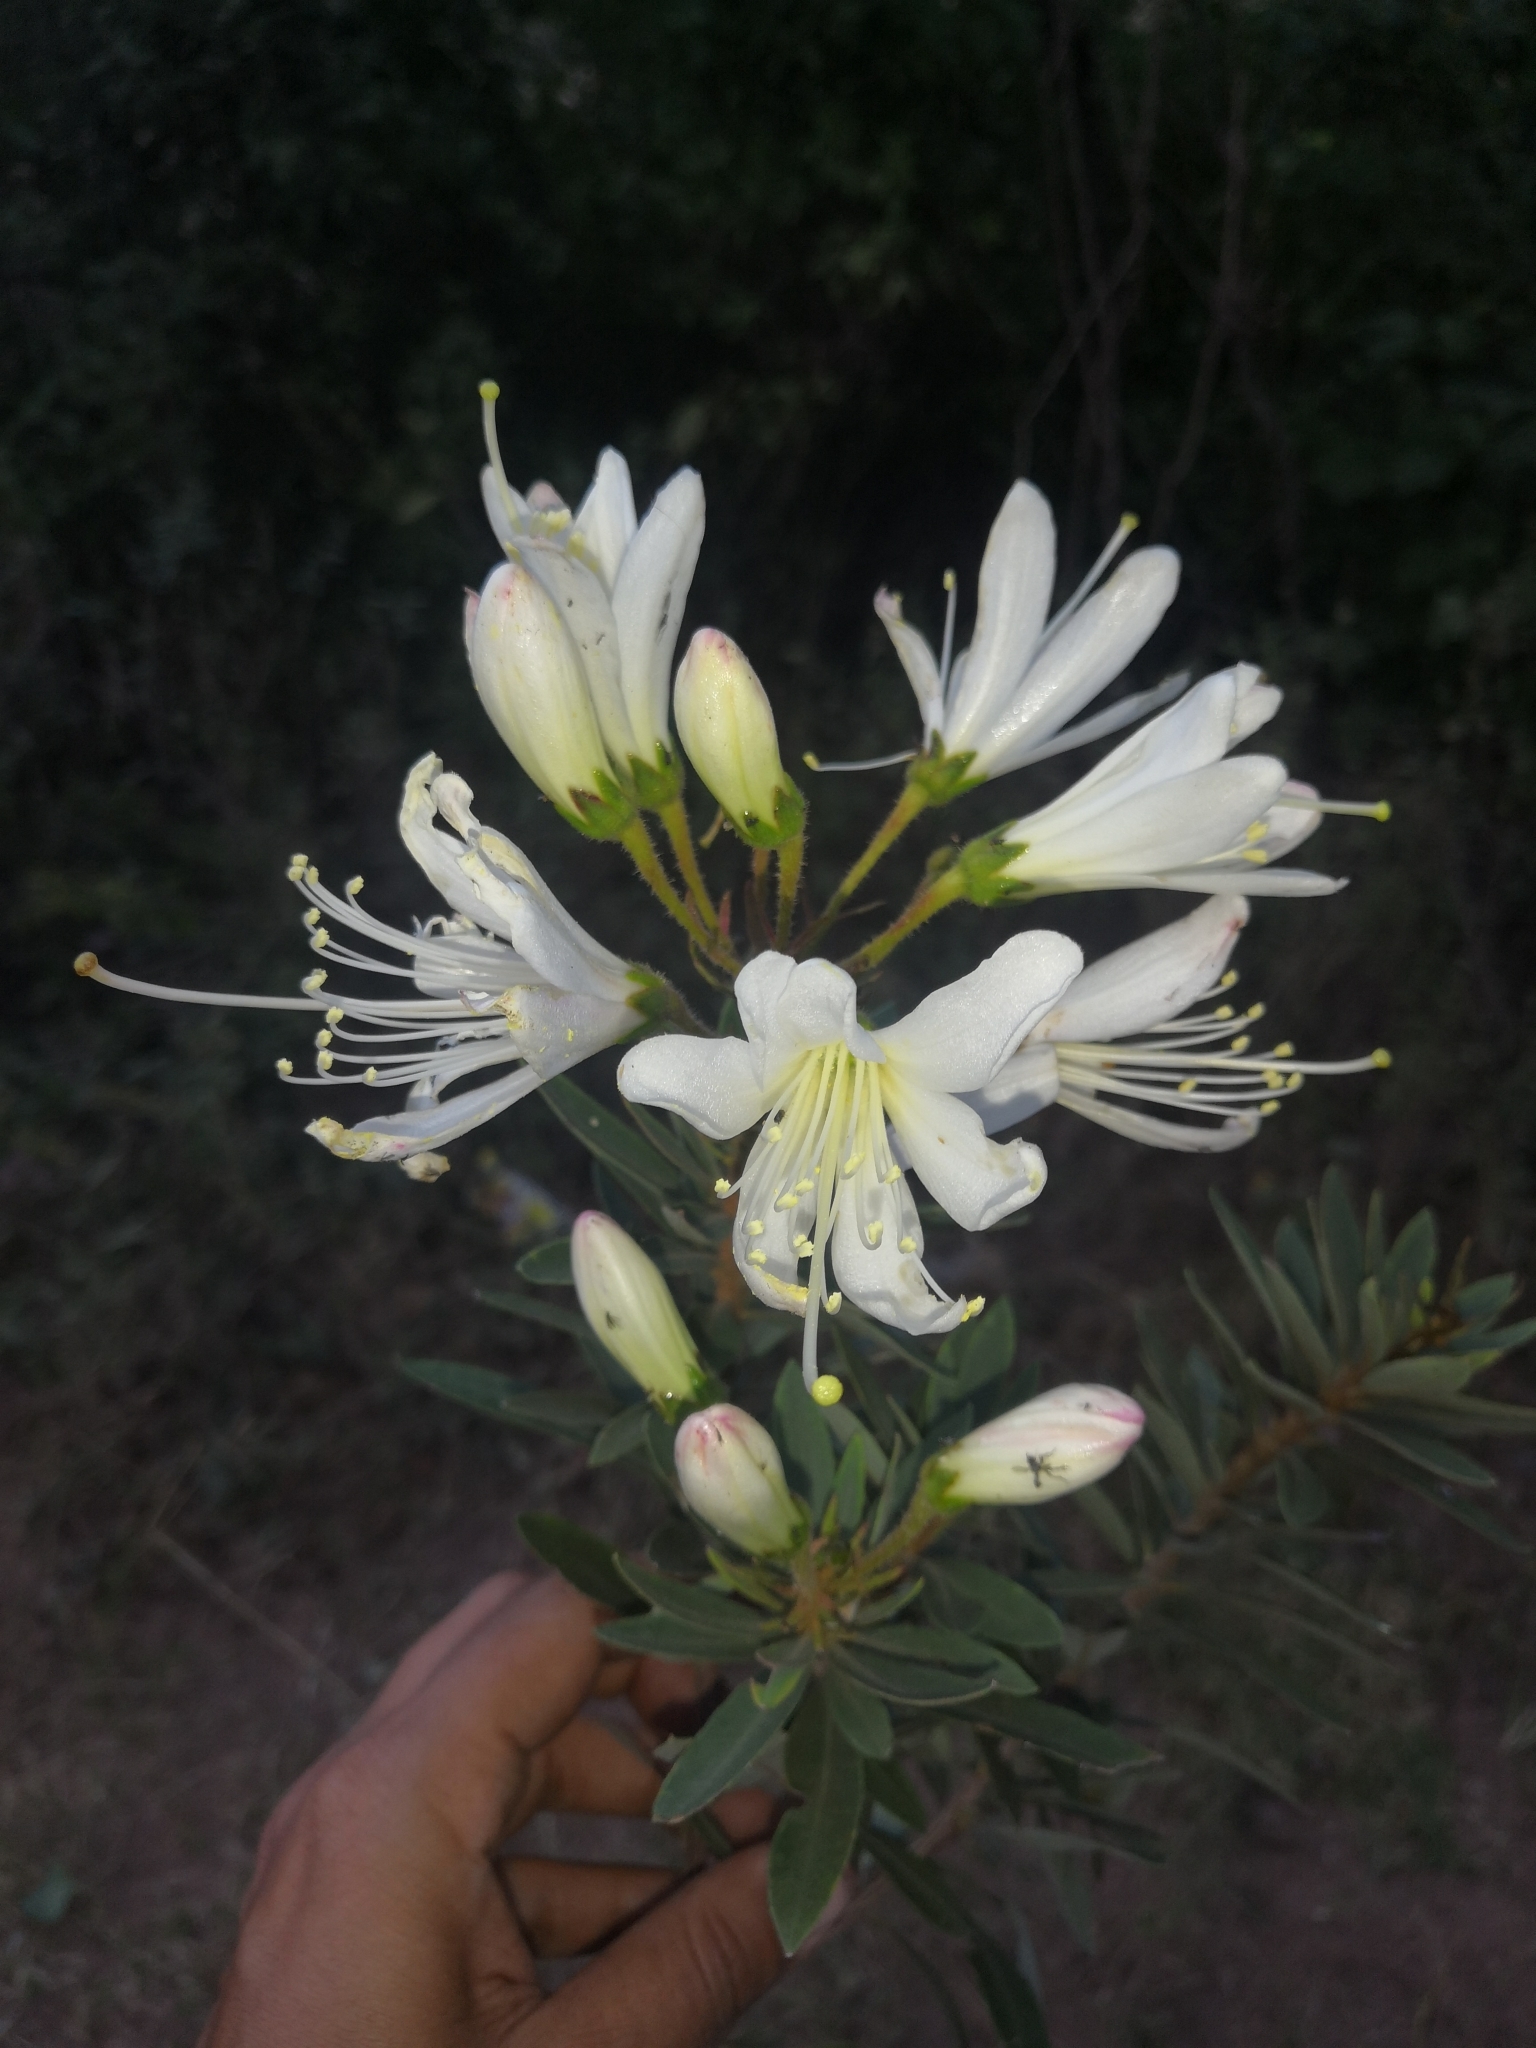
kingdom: Plantae
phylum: Tracheophyta
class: Magnoliopsida
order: Ericales
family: Ericaceae
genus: Bejaria
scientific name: Bejaria aestuans
